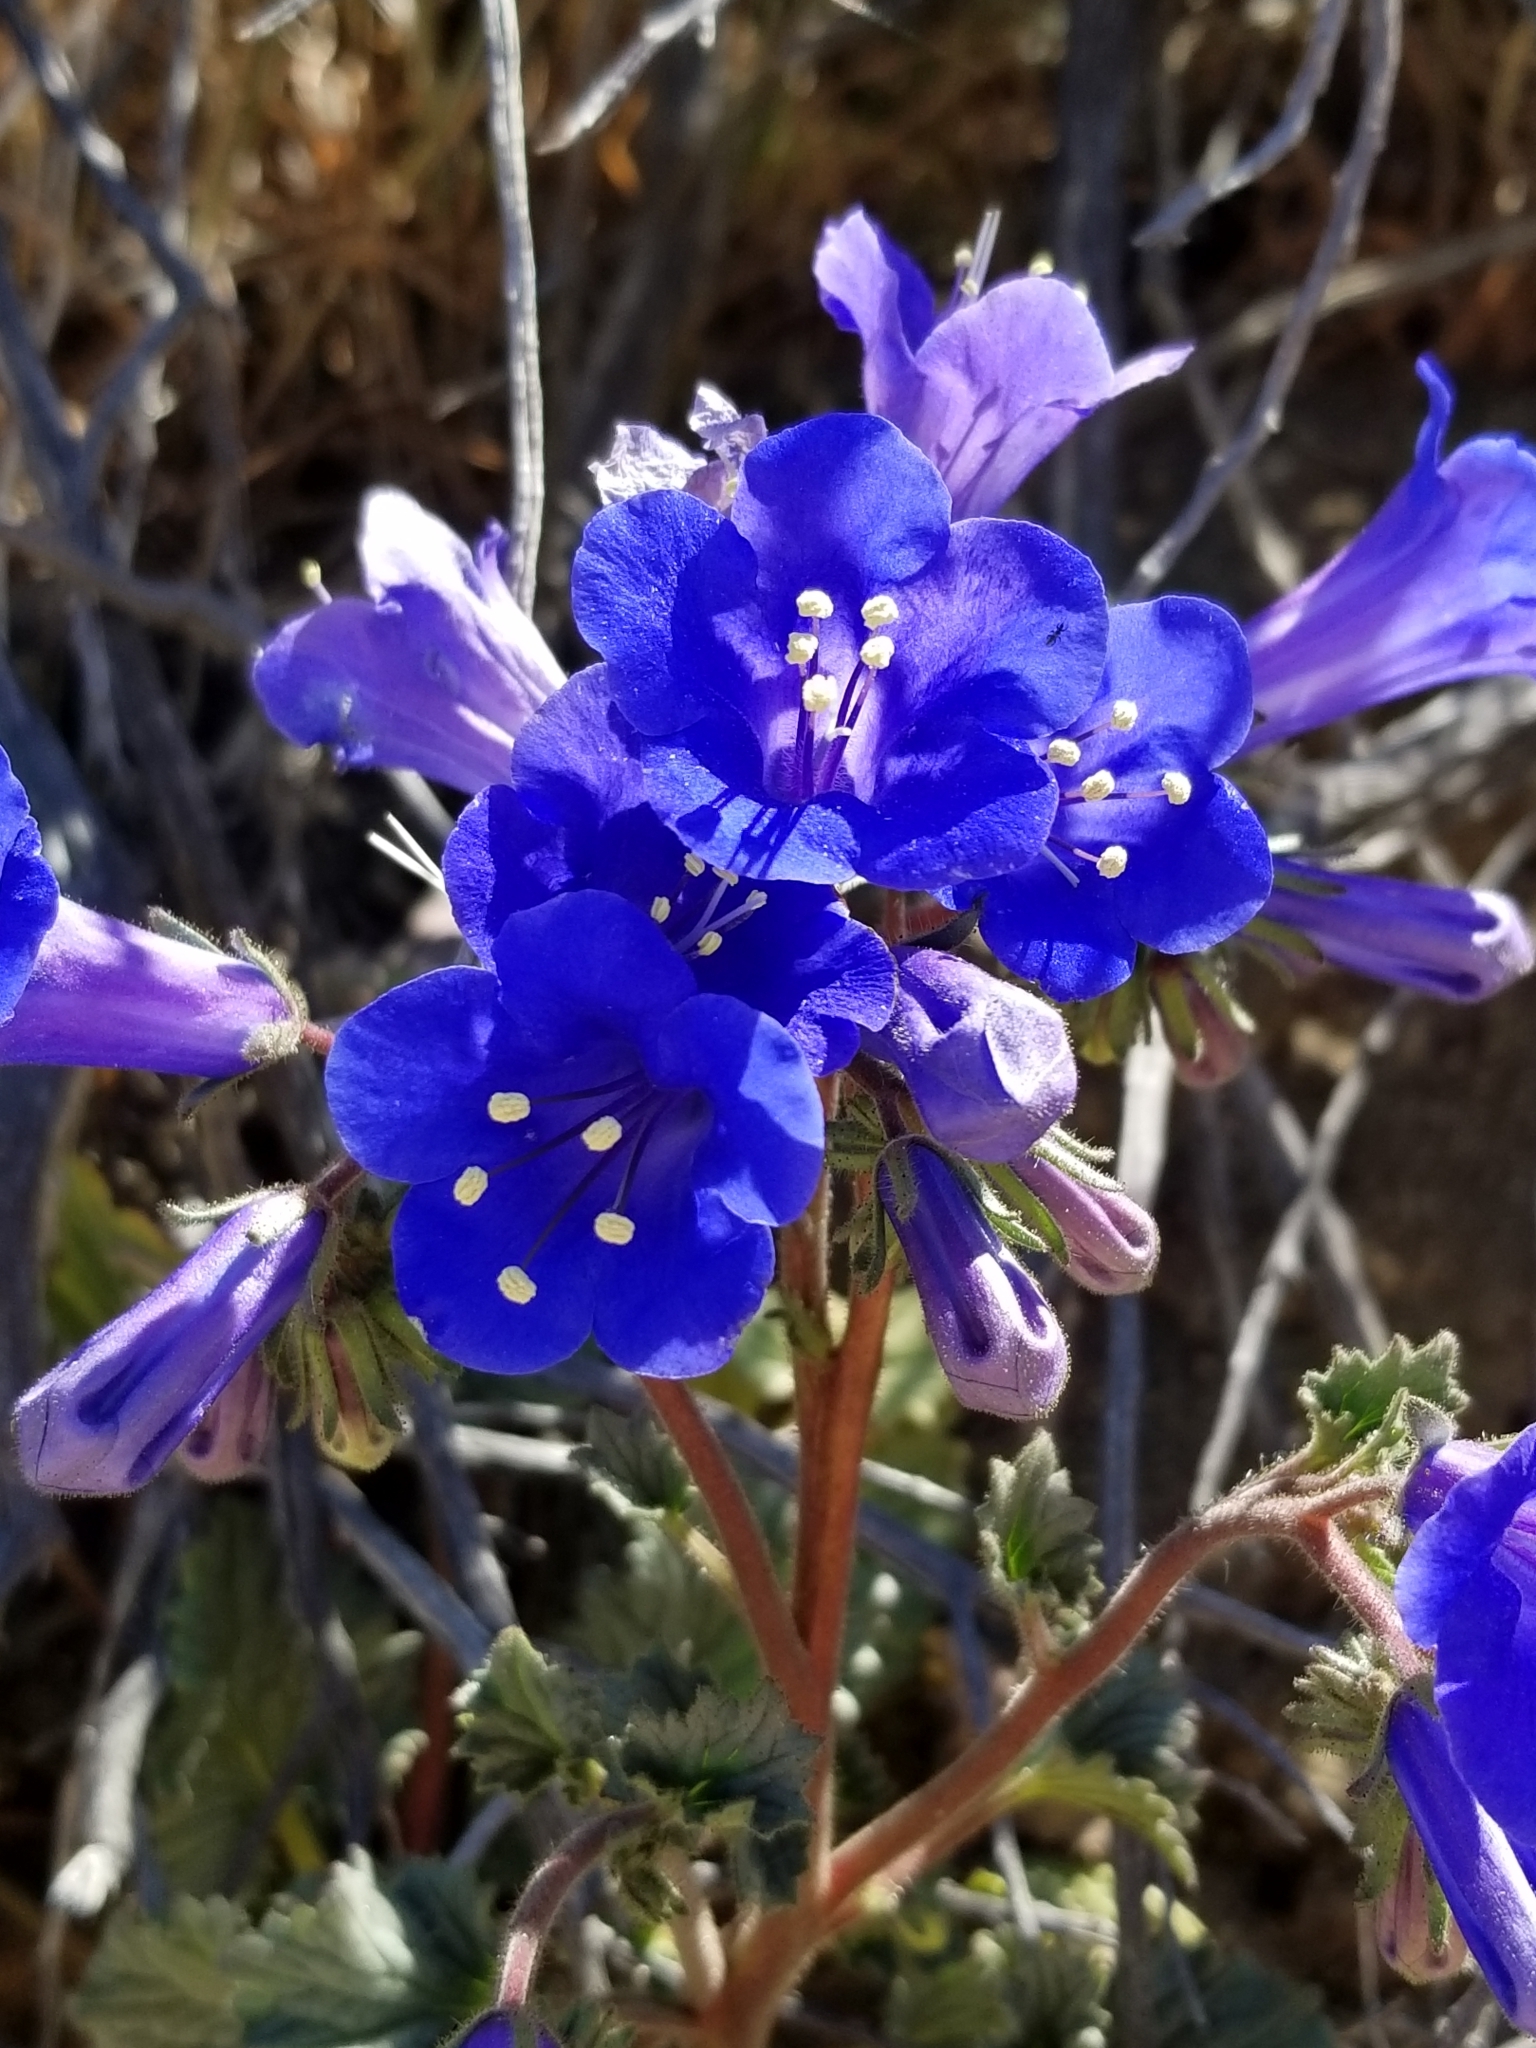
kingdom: Plantae
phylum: Tracheophyta
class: Magnoliopsida
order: Boraginales
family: Hydrophyllaceae
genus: Phacelia
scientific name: Phacelia campanularia
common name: California bluebell
